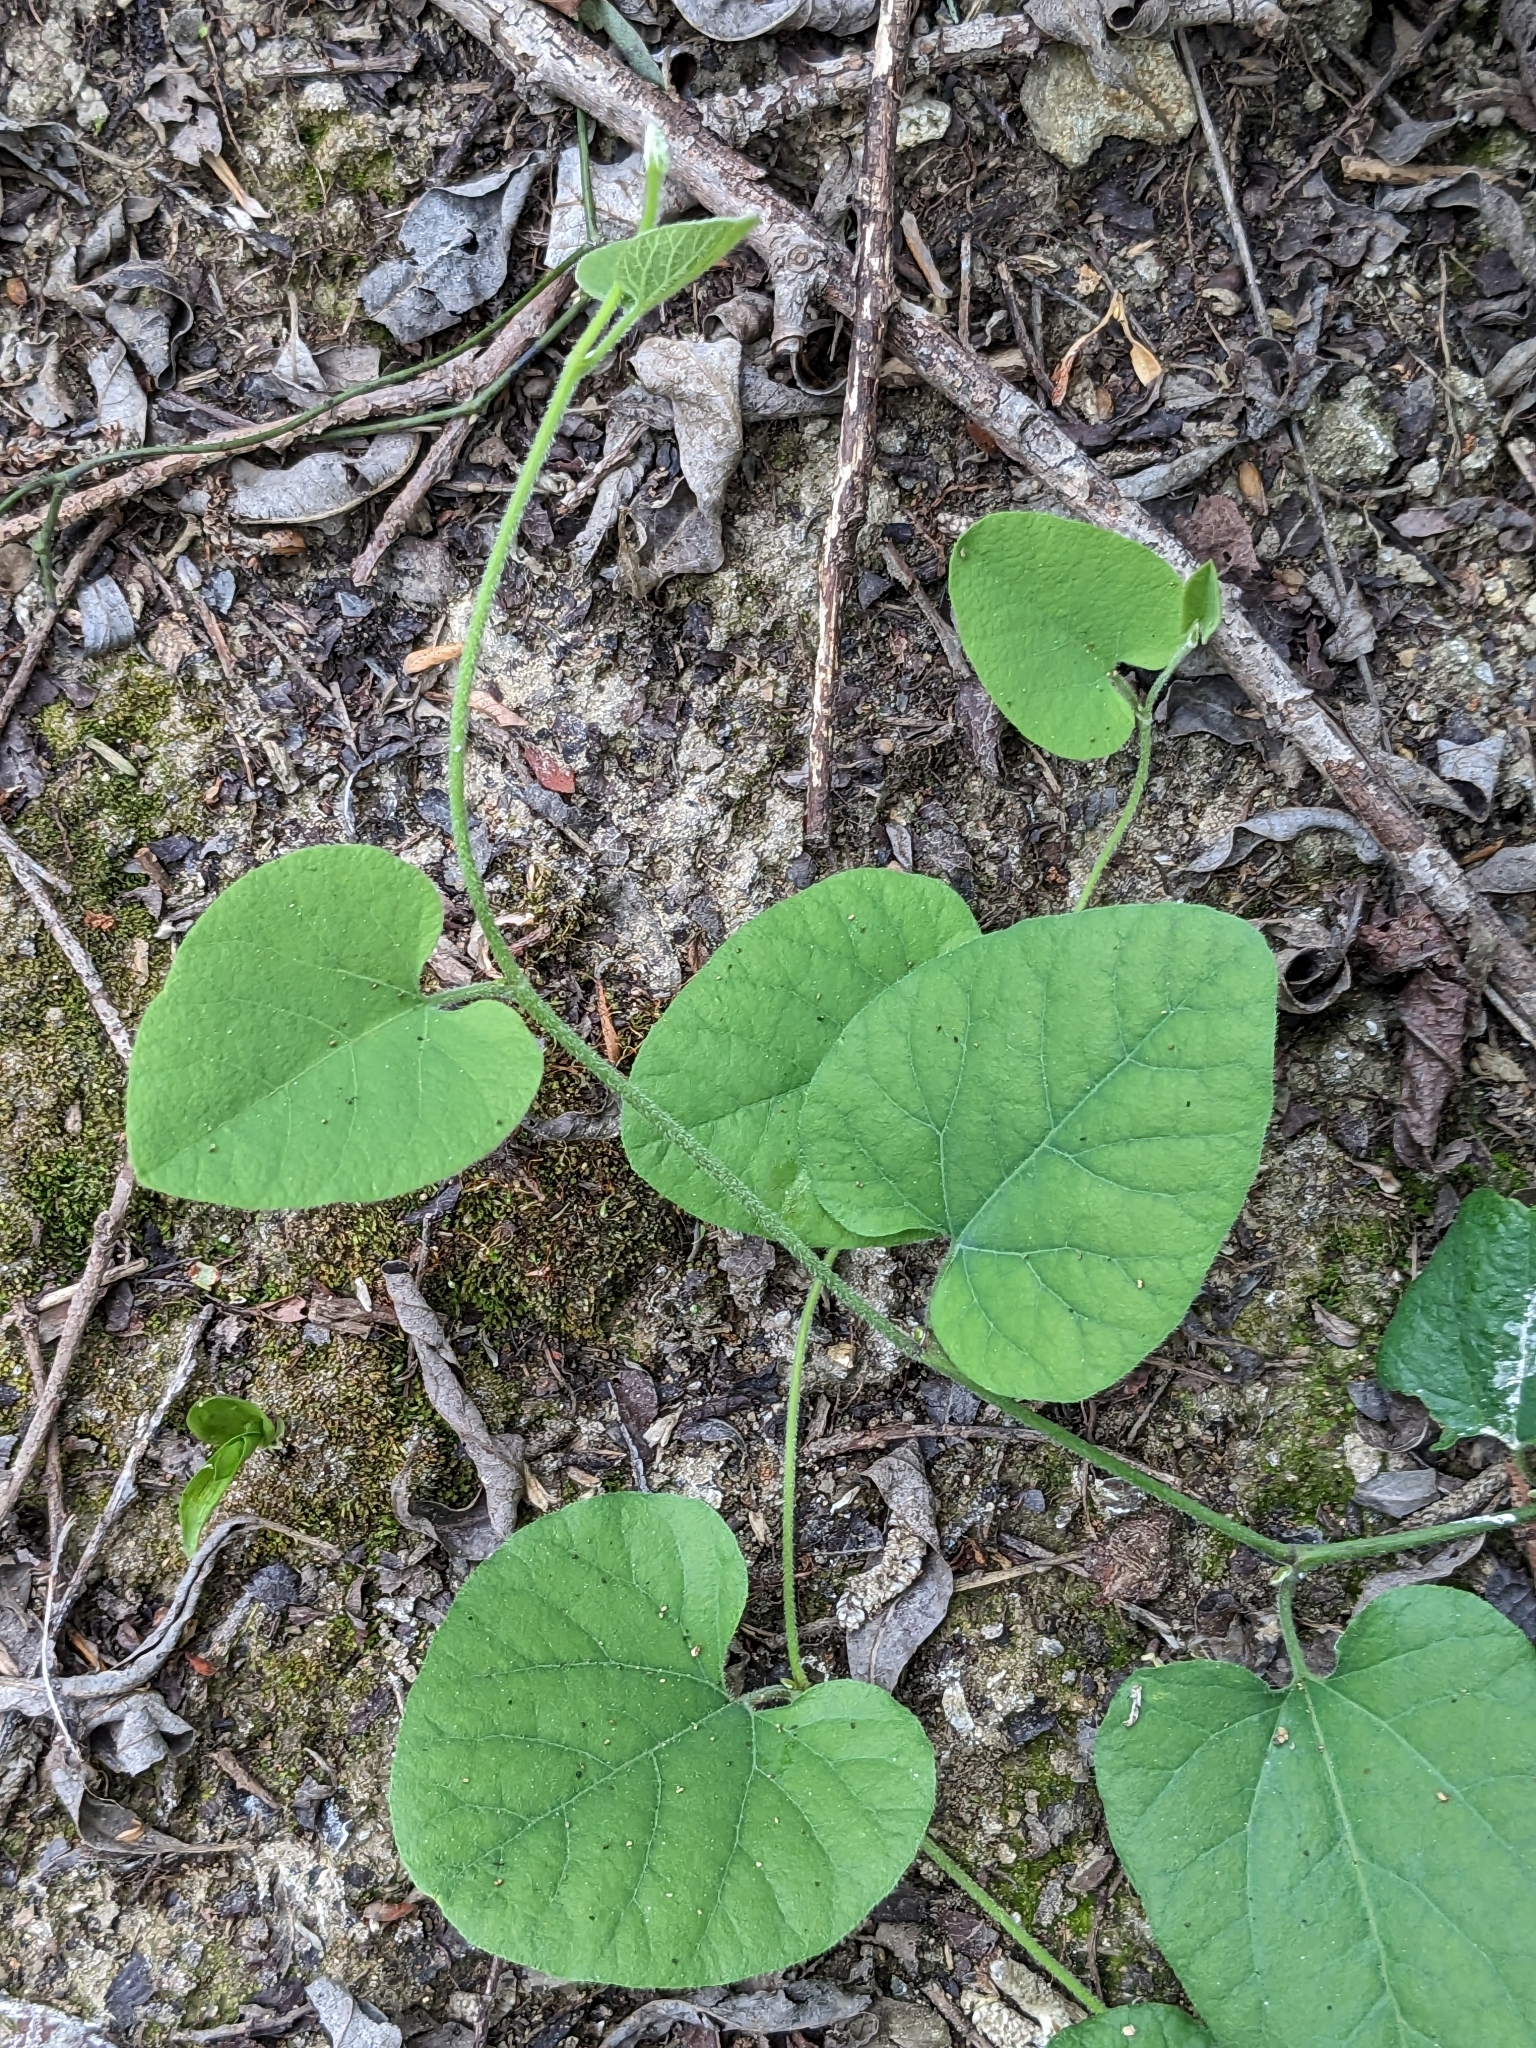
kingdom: Plantae
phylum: Tracheophyta
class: Magnoliopsida
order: Piperales
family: Aristolochiaceae
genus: Isotrema
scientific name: Isotrema californicum
